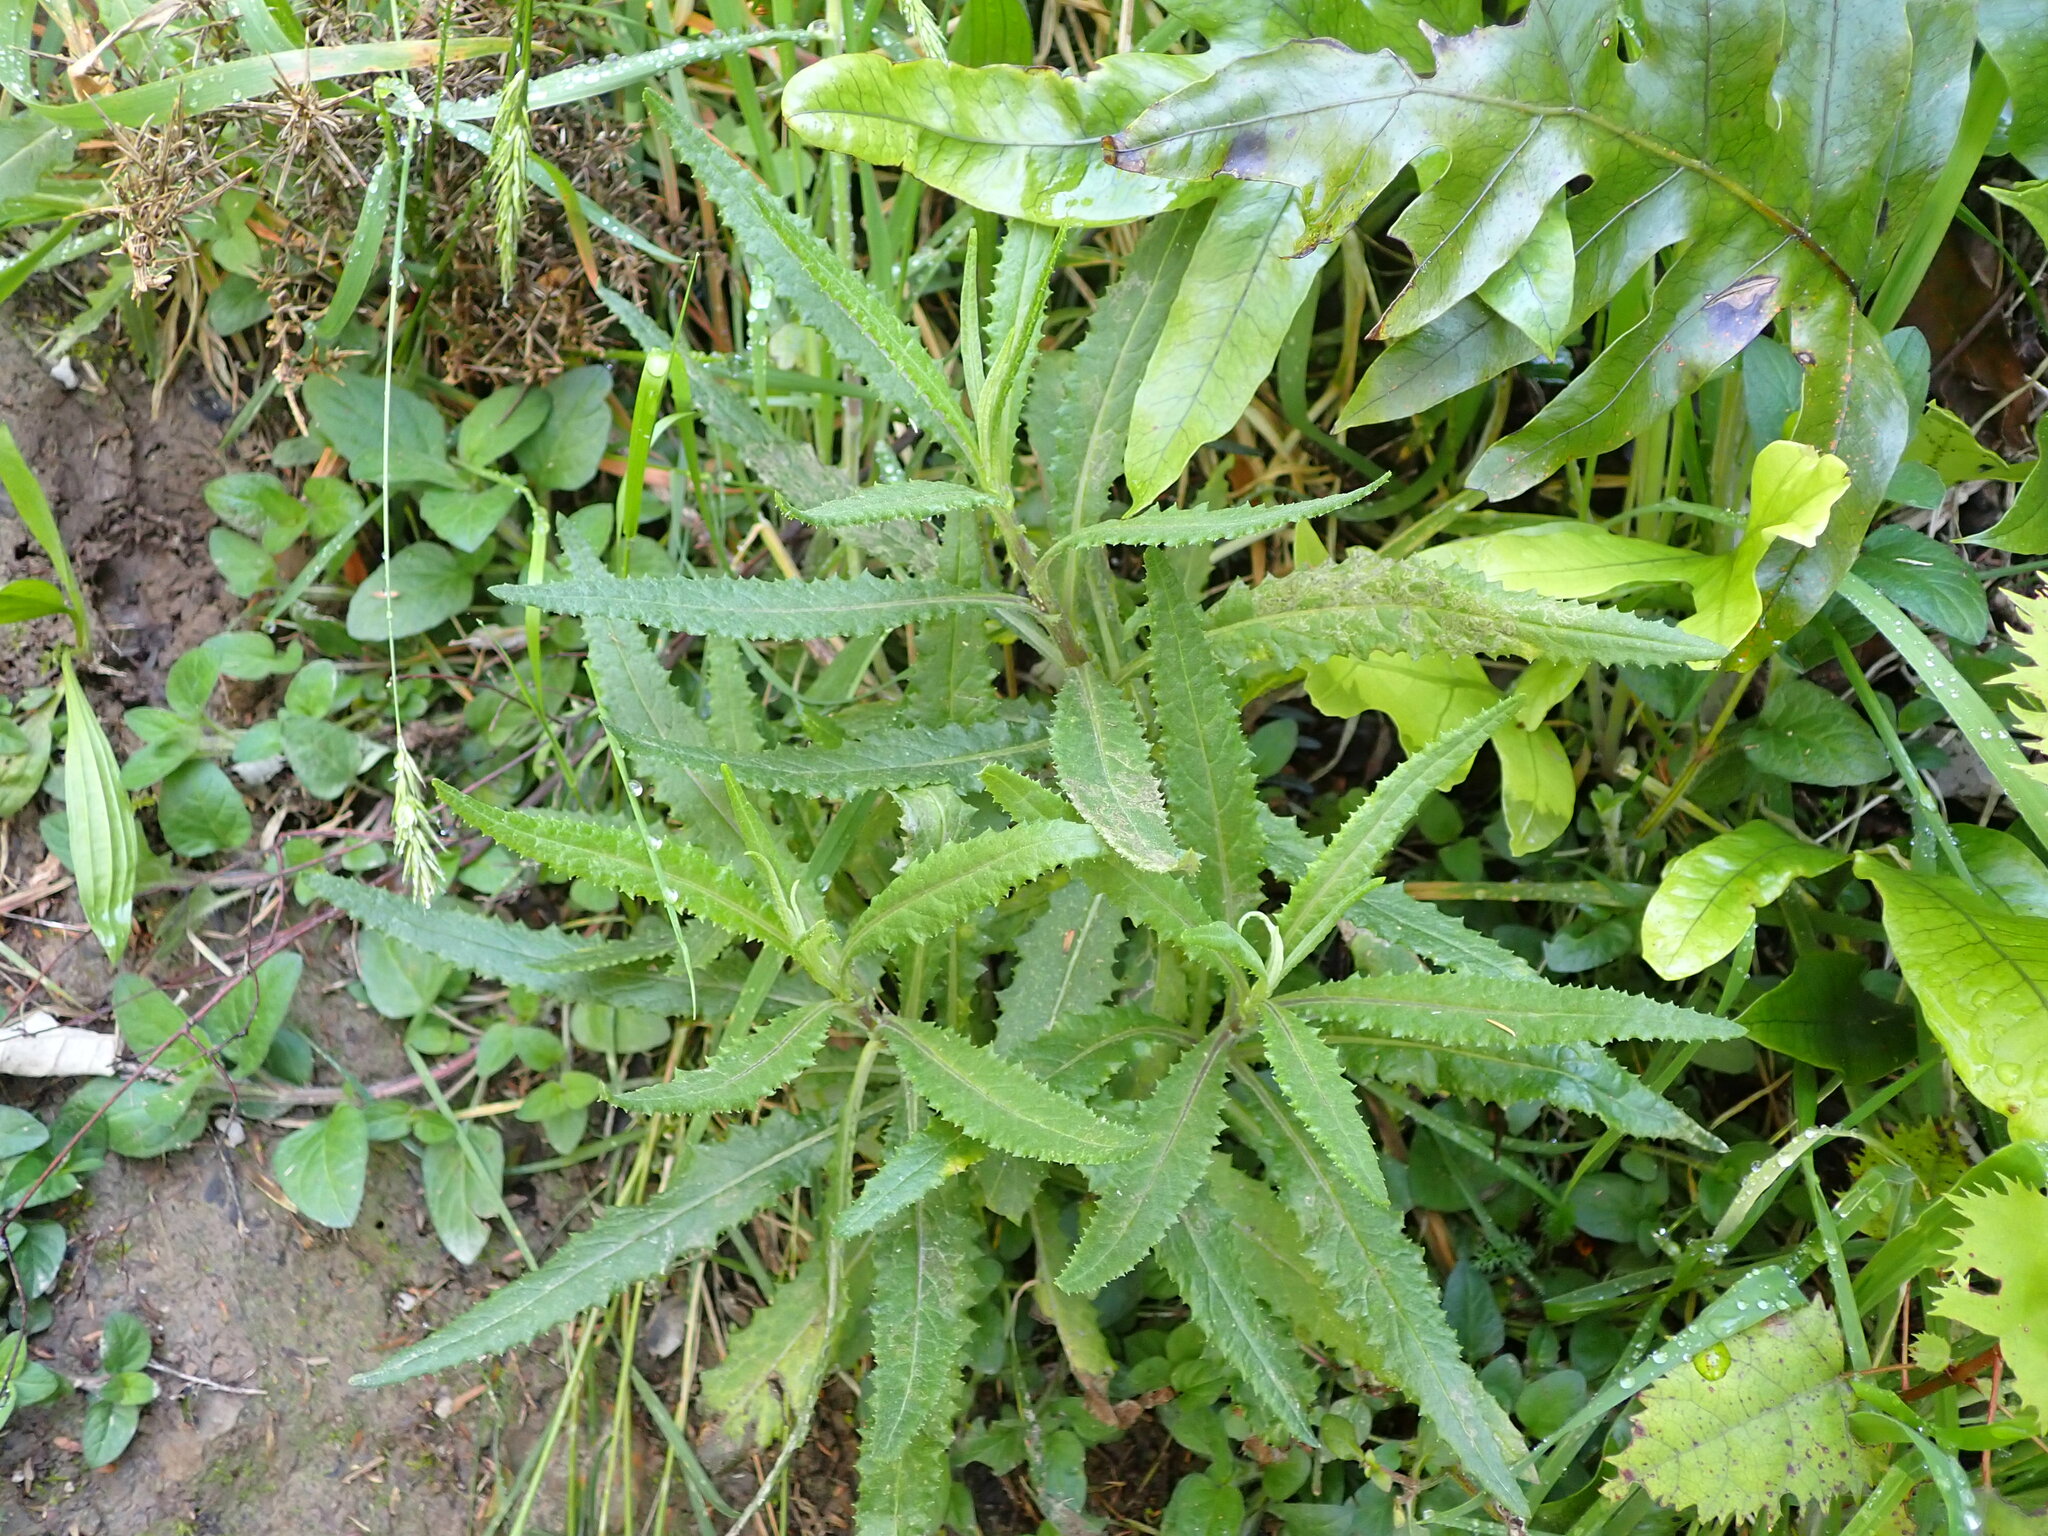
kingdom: Plantae
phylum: Tracheophyta
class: Magnoliopsida
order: Asterales
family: Asteraceae
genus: Senecio
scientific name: Senecio minimus
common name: Toothed fireweed
